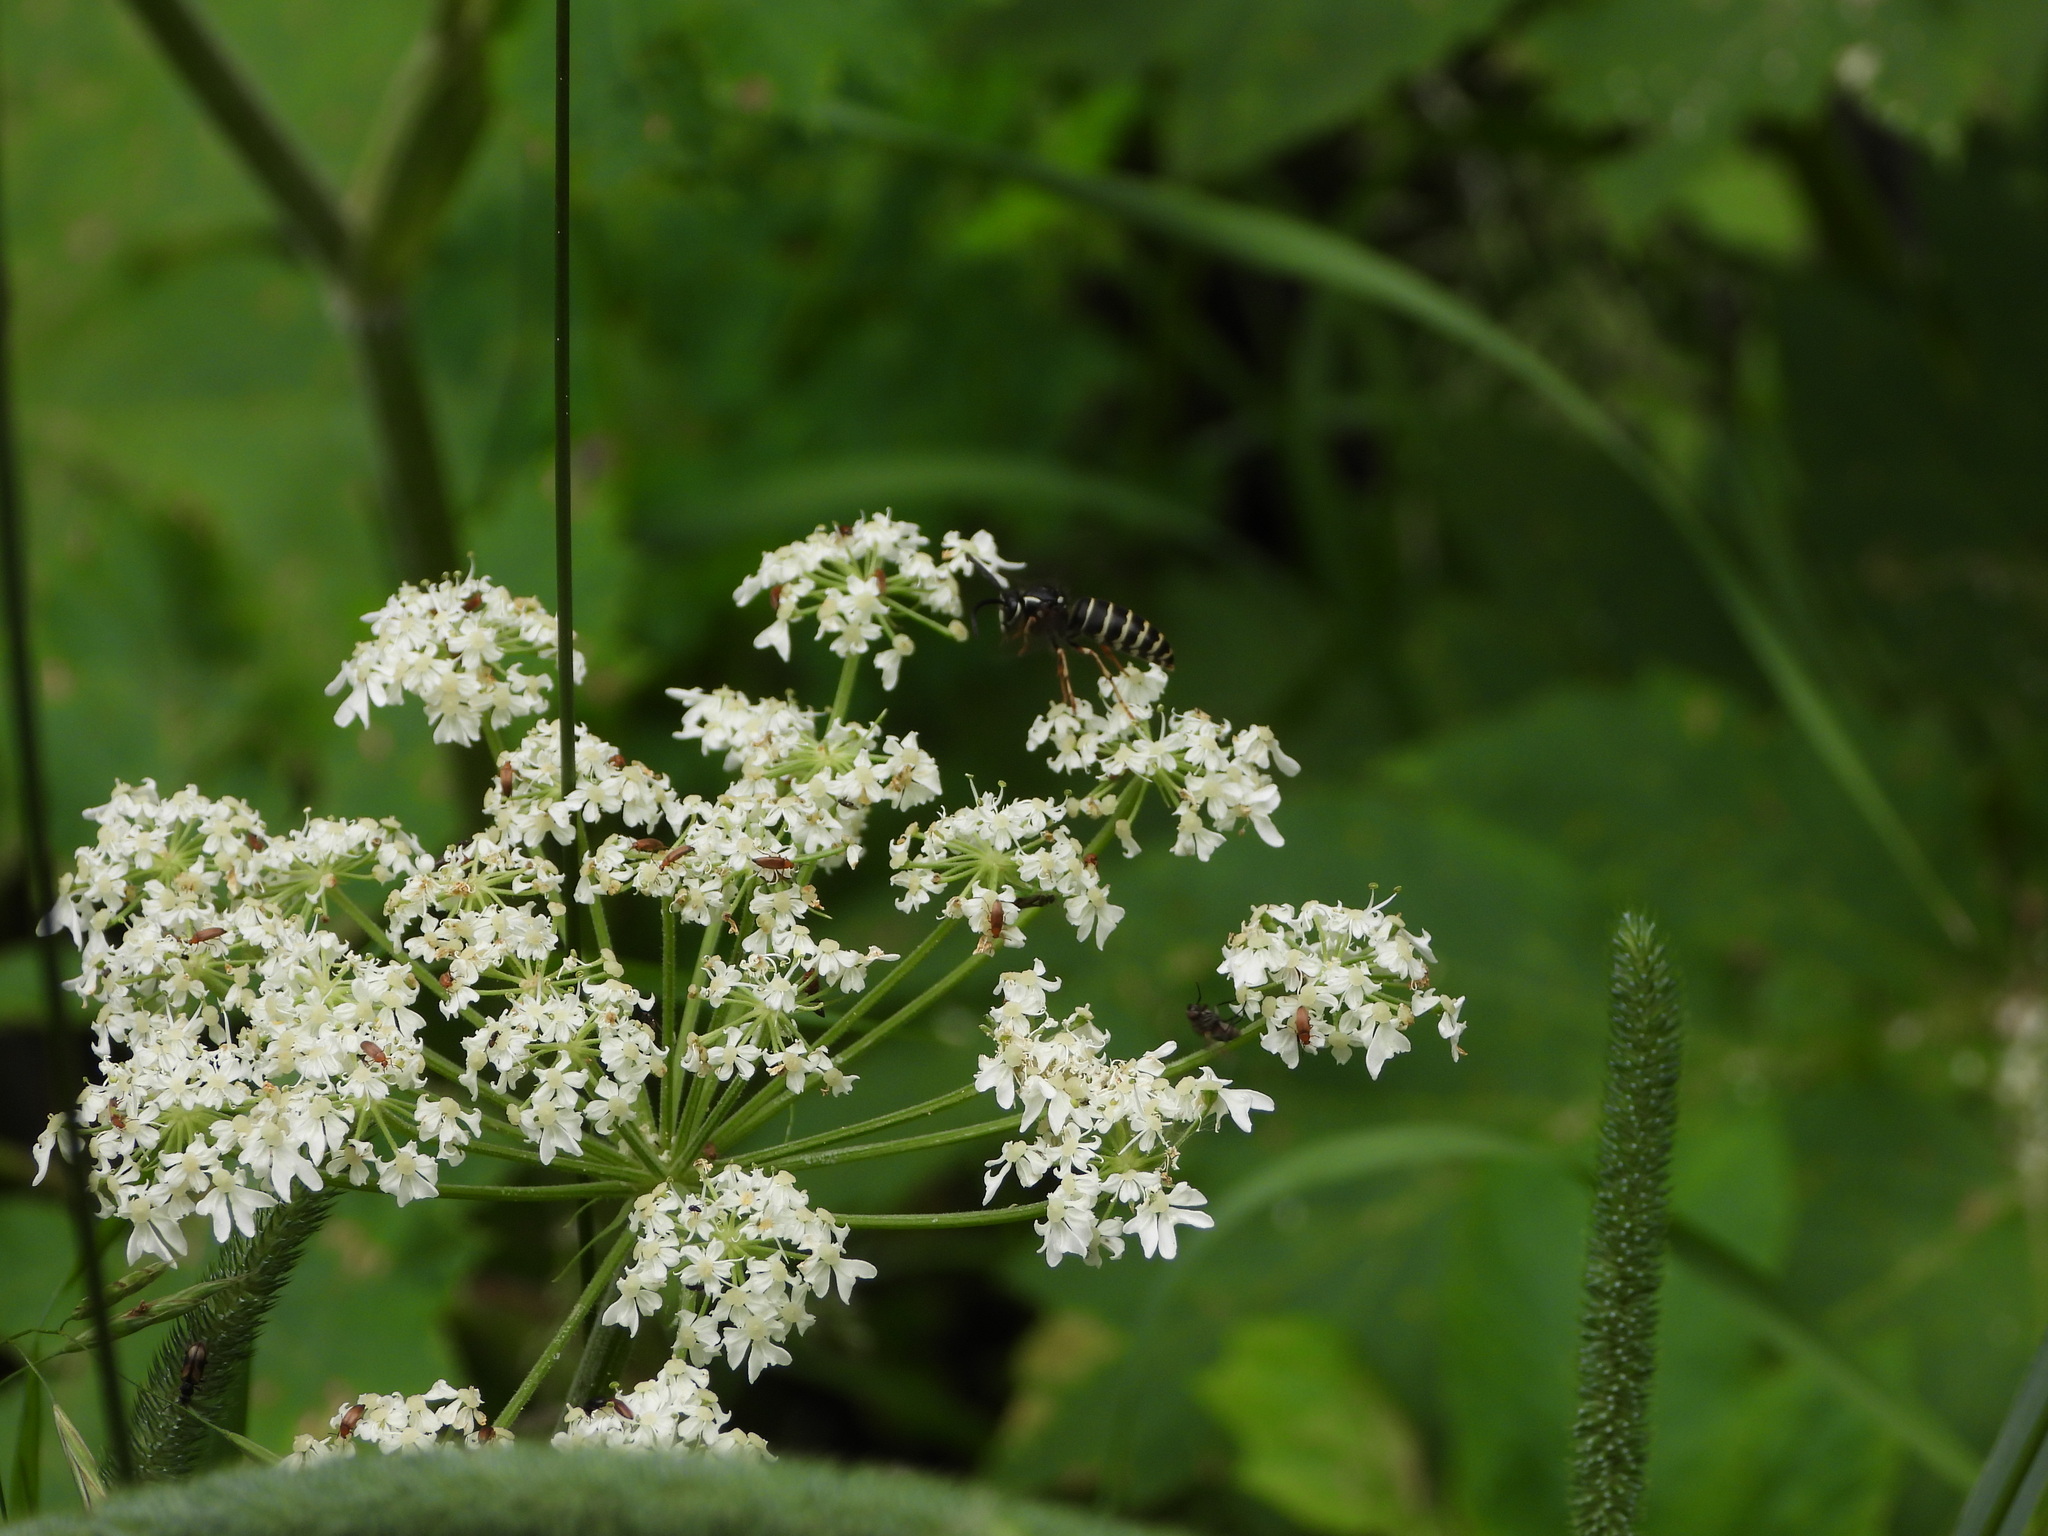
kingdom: Animalia
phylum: Arthropoda
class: Insecta
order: Hymenoptera
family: Vespidae
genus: Dolichovespula
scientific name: Dolichovespula adulterina
